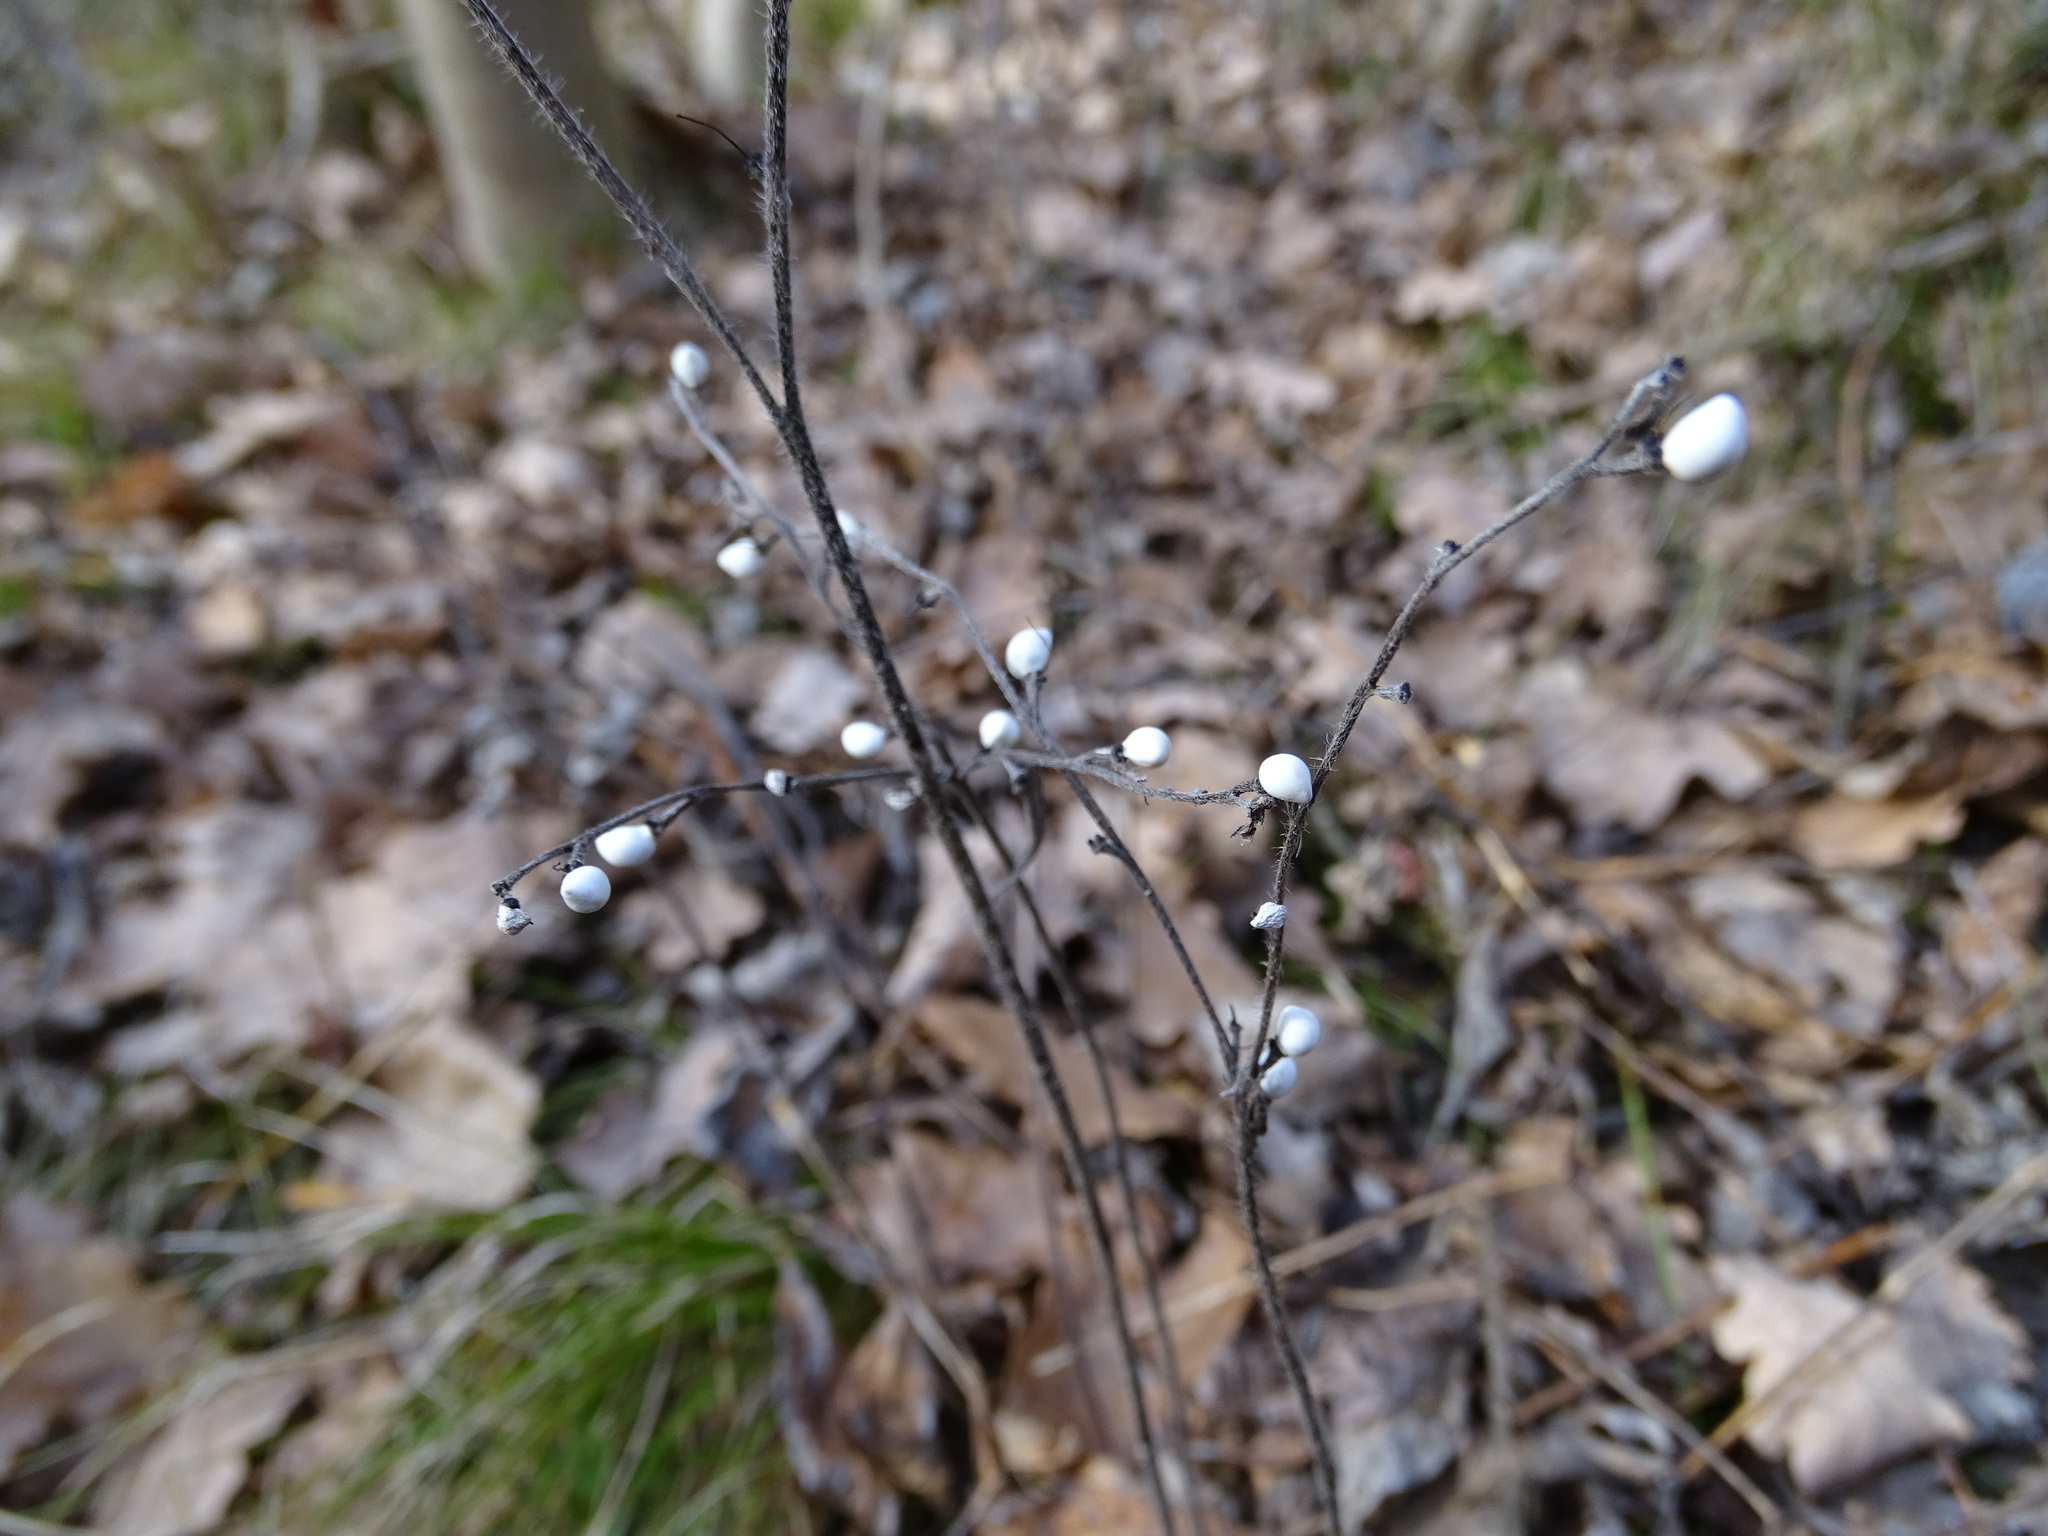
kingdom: Plantae
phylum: Tracheophyta
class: Magnoliopsida
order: Boraginales
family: Boraginaceae
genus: Aegonychon
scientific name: Aegonychon purpurocaeruleum
